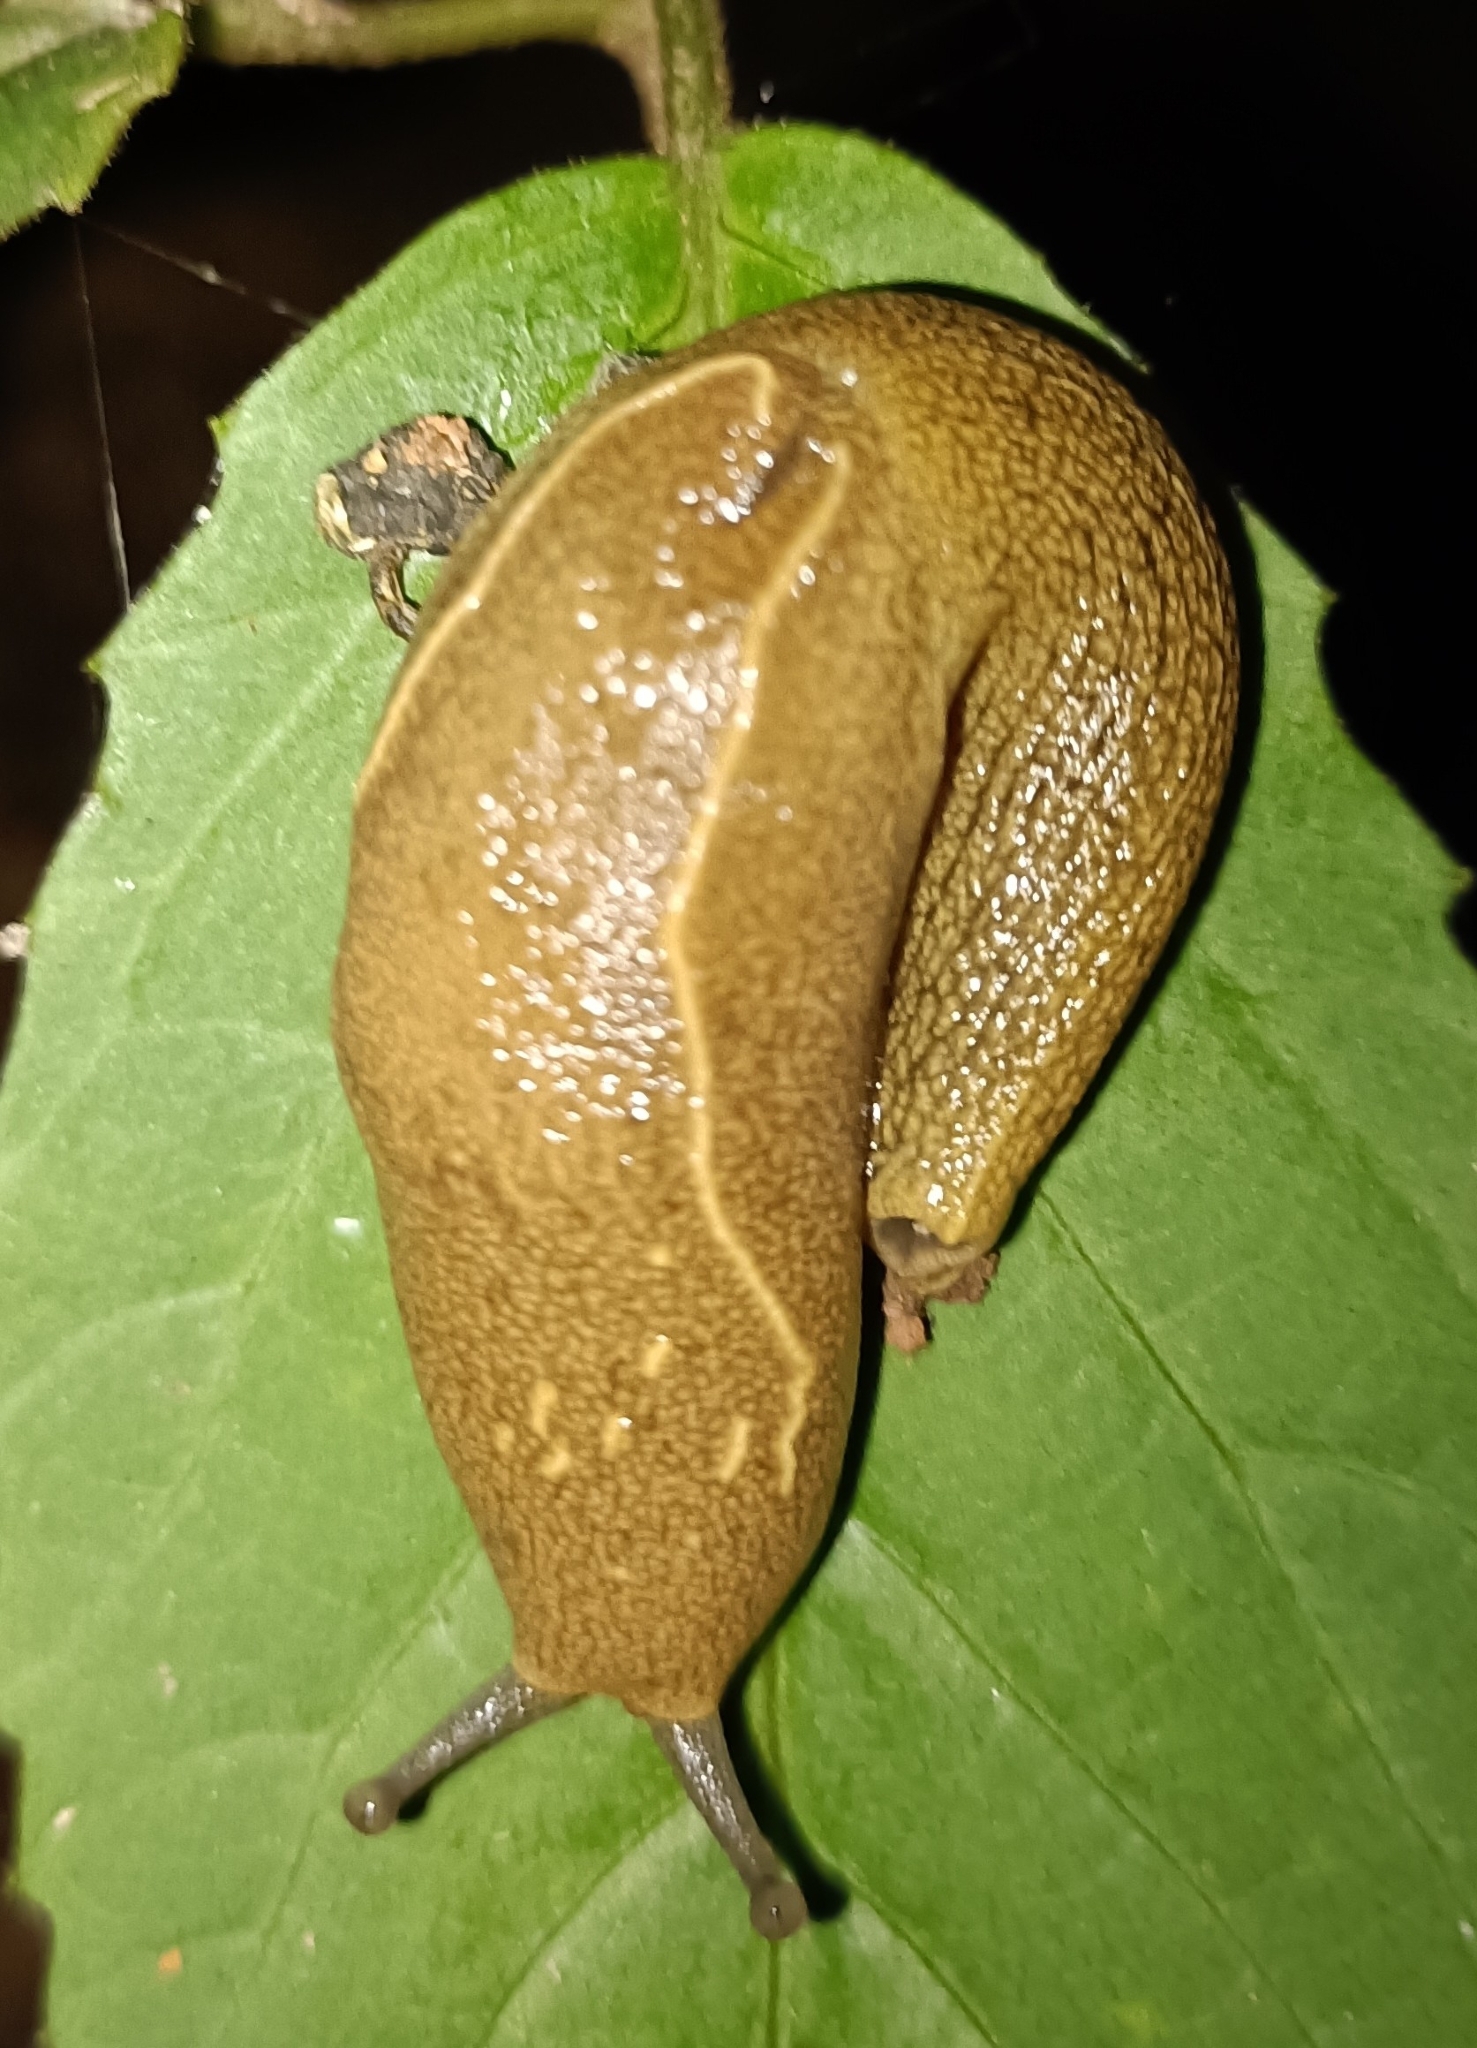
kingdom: Animalia
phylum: Mollusca
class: Gastropoda
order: Stylommatophora
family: Ariophantidae
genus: Mariaella
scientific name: Mariaella dussumieri
